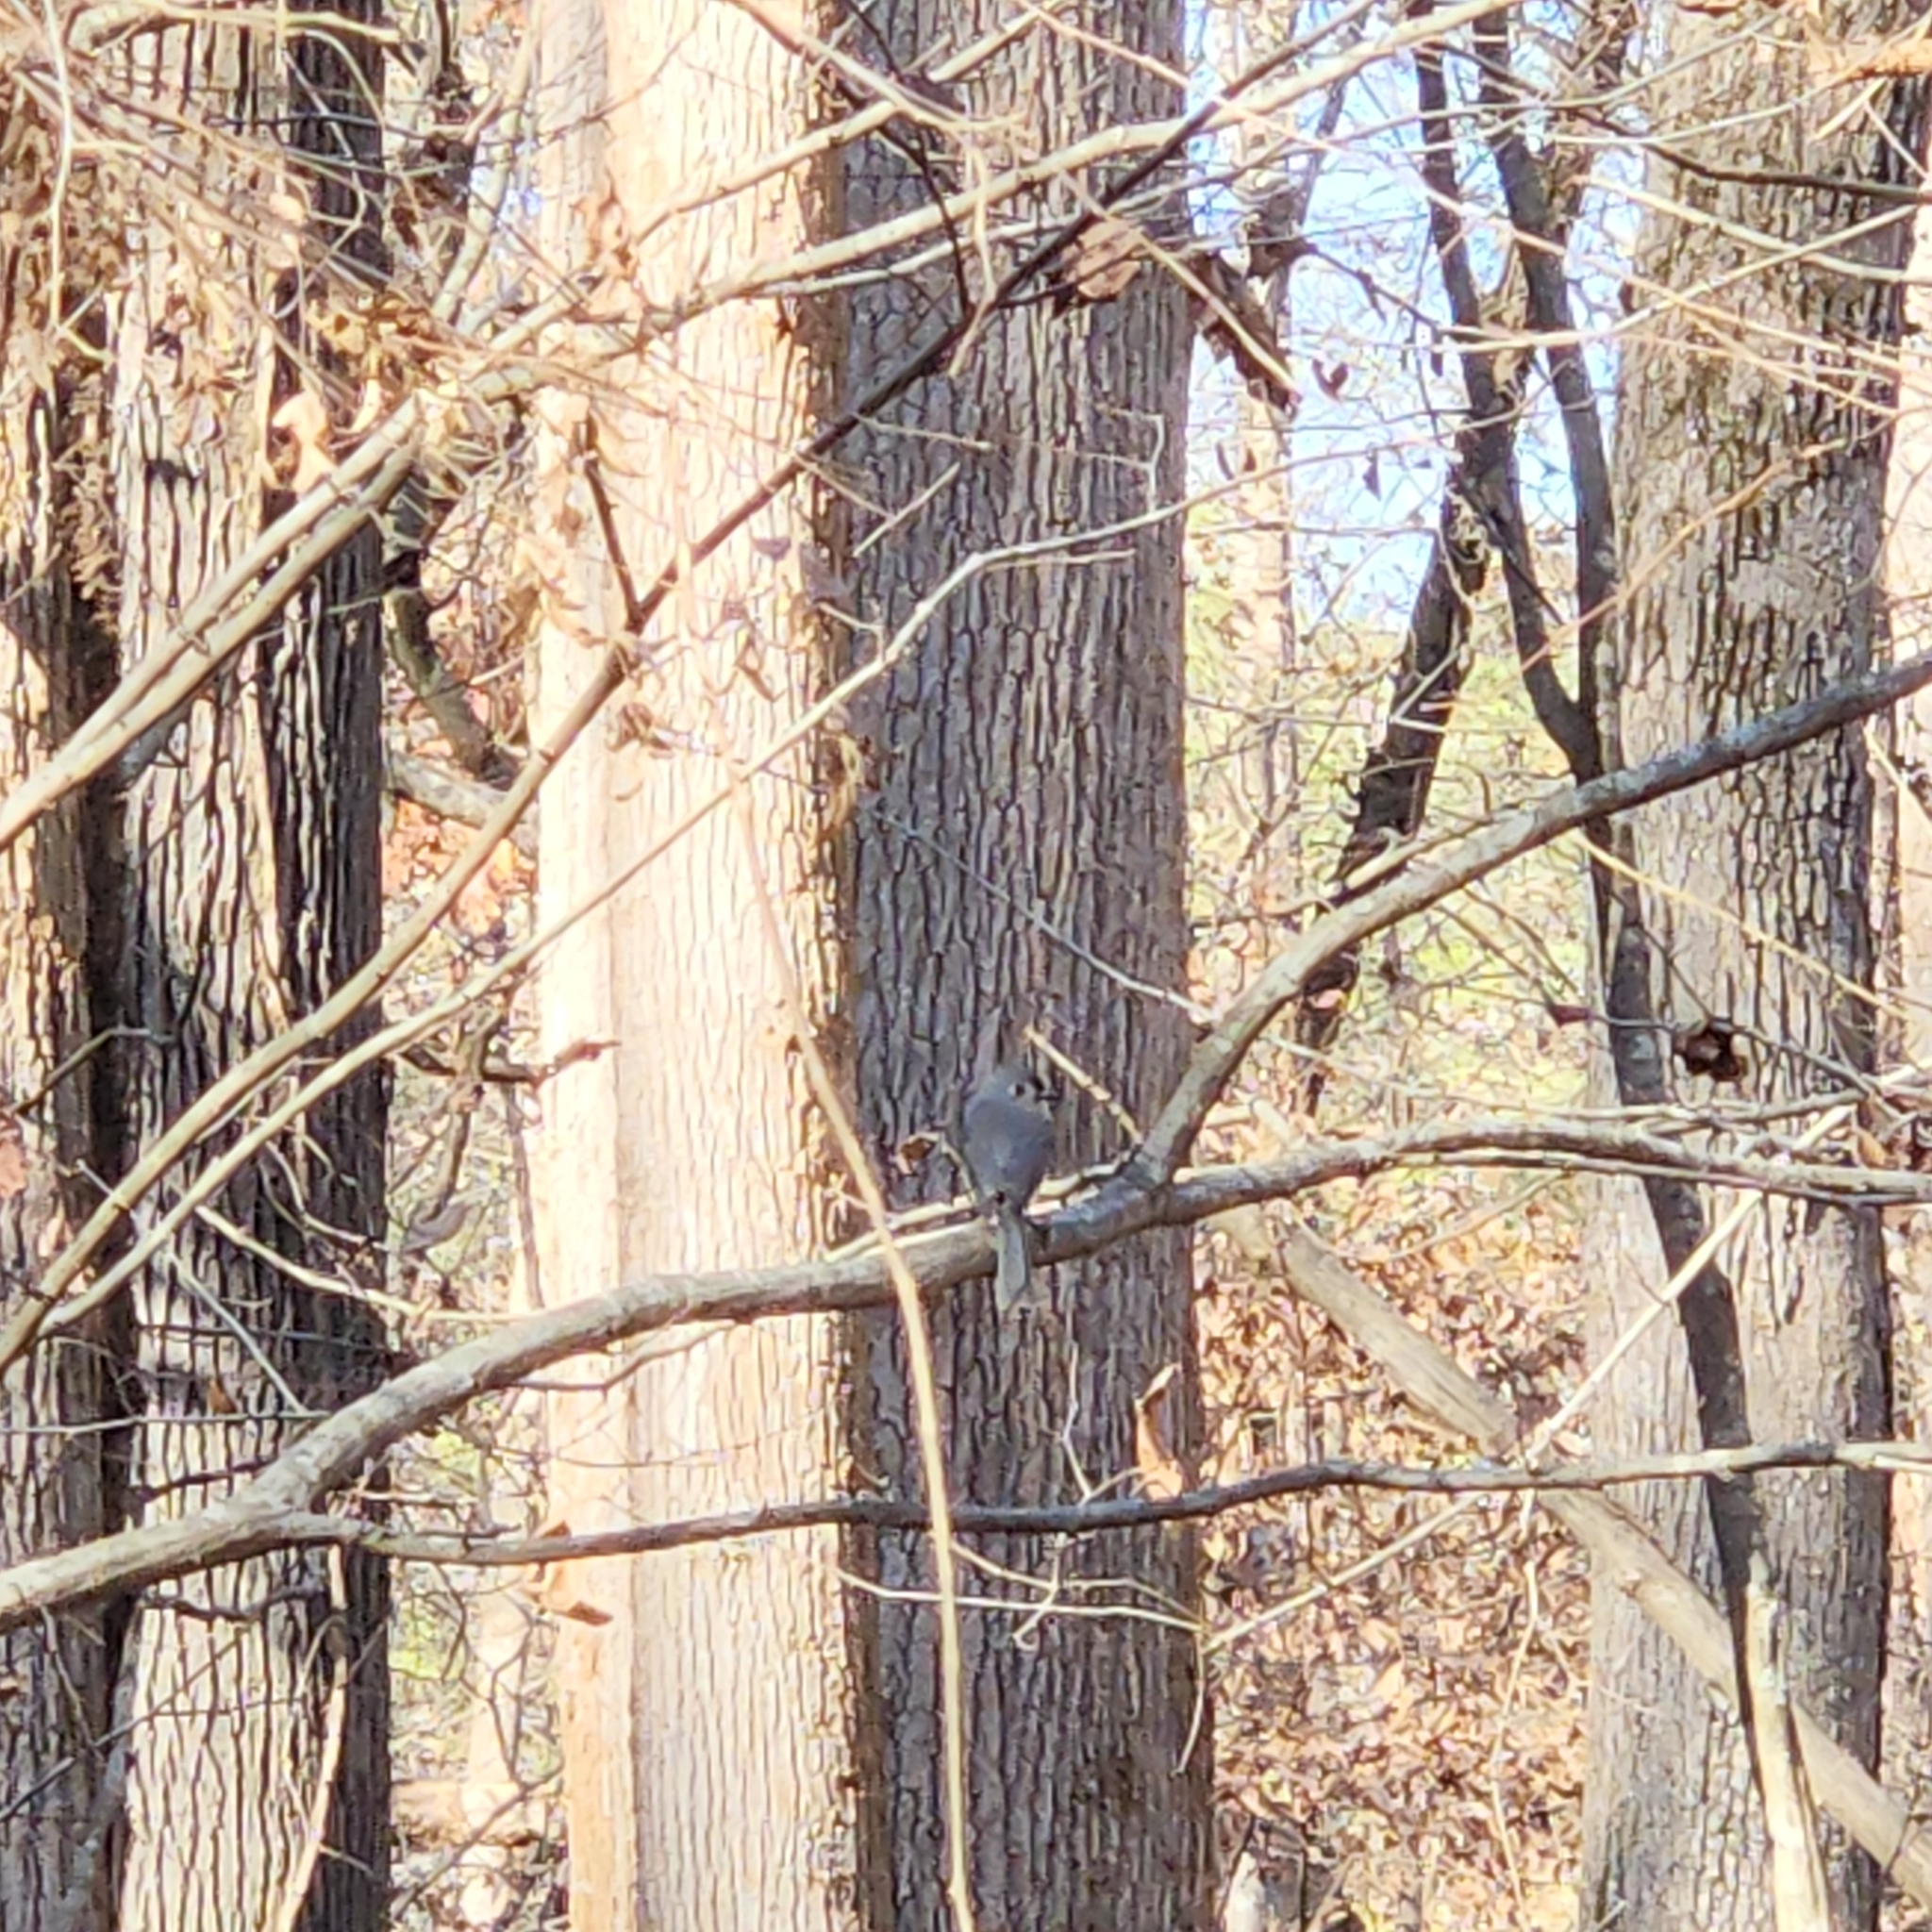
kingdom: Animalia
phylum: Chordata
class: Aves
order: Passeriformes
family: Paridae
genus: Baeolophus
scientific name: Baeolophus bicolor
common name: Tufted titmouse
